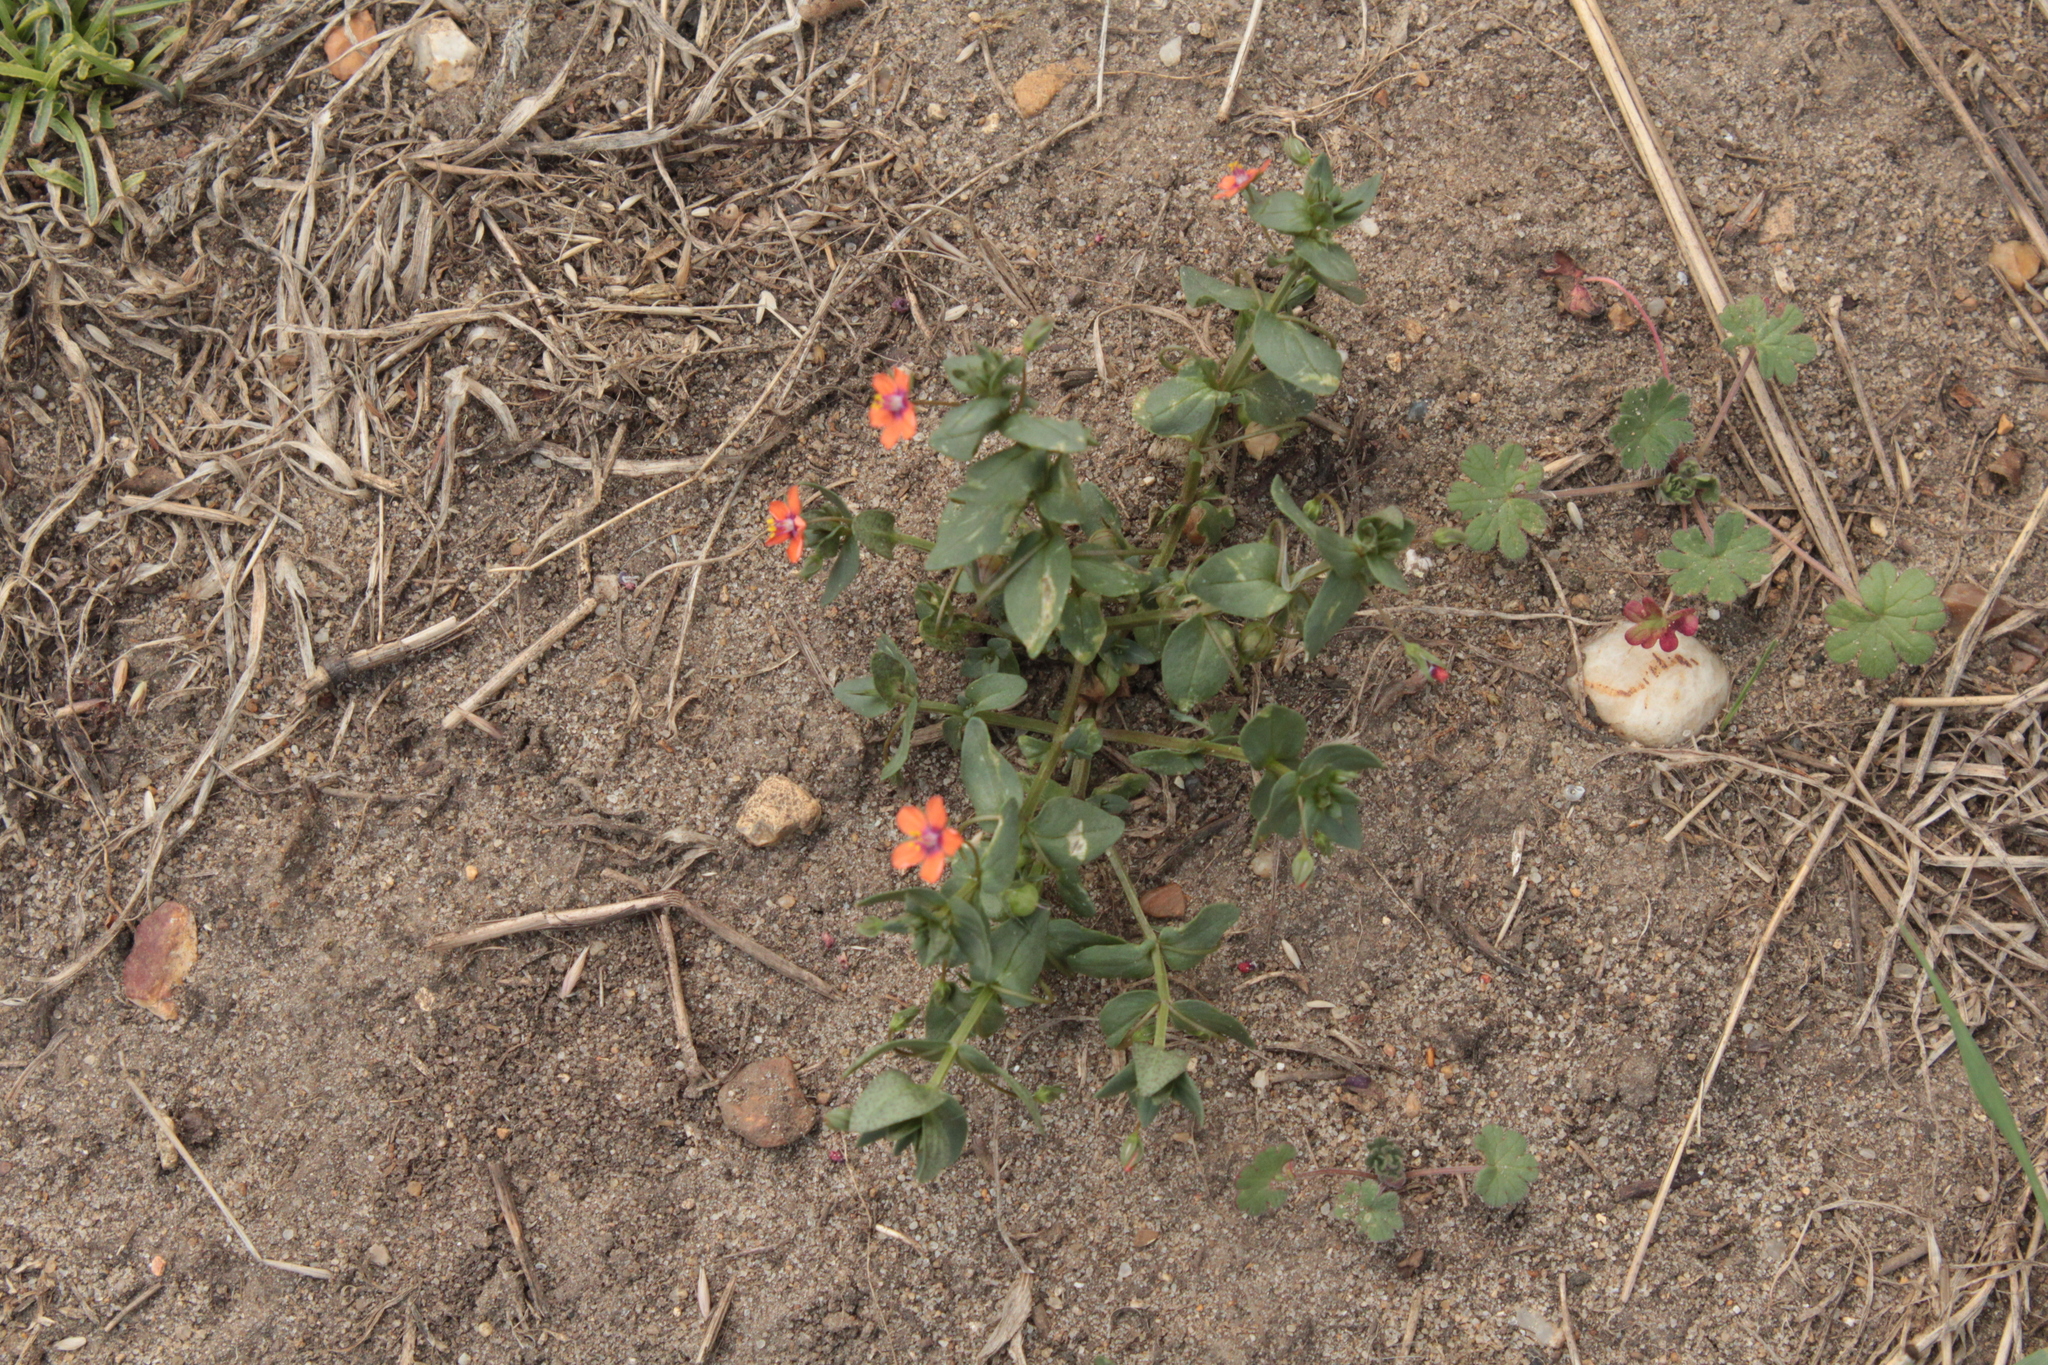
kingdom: Plantae
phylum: Tracheophyta
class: Magnoliopsida
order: Ericales
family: Primulaceae
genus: Lysimachia
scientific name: Lysimachia arvensis
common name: Scarlet pimpernel
